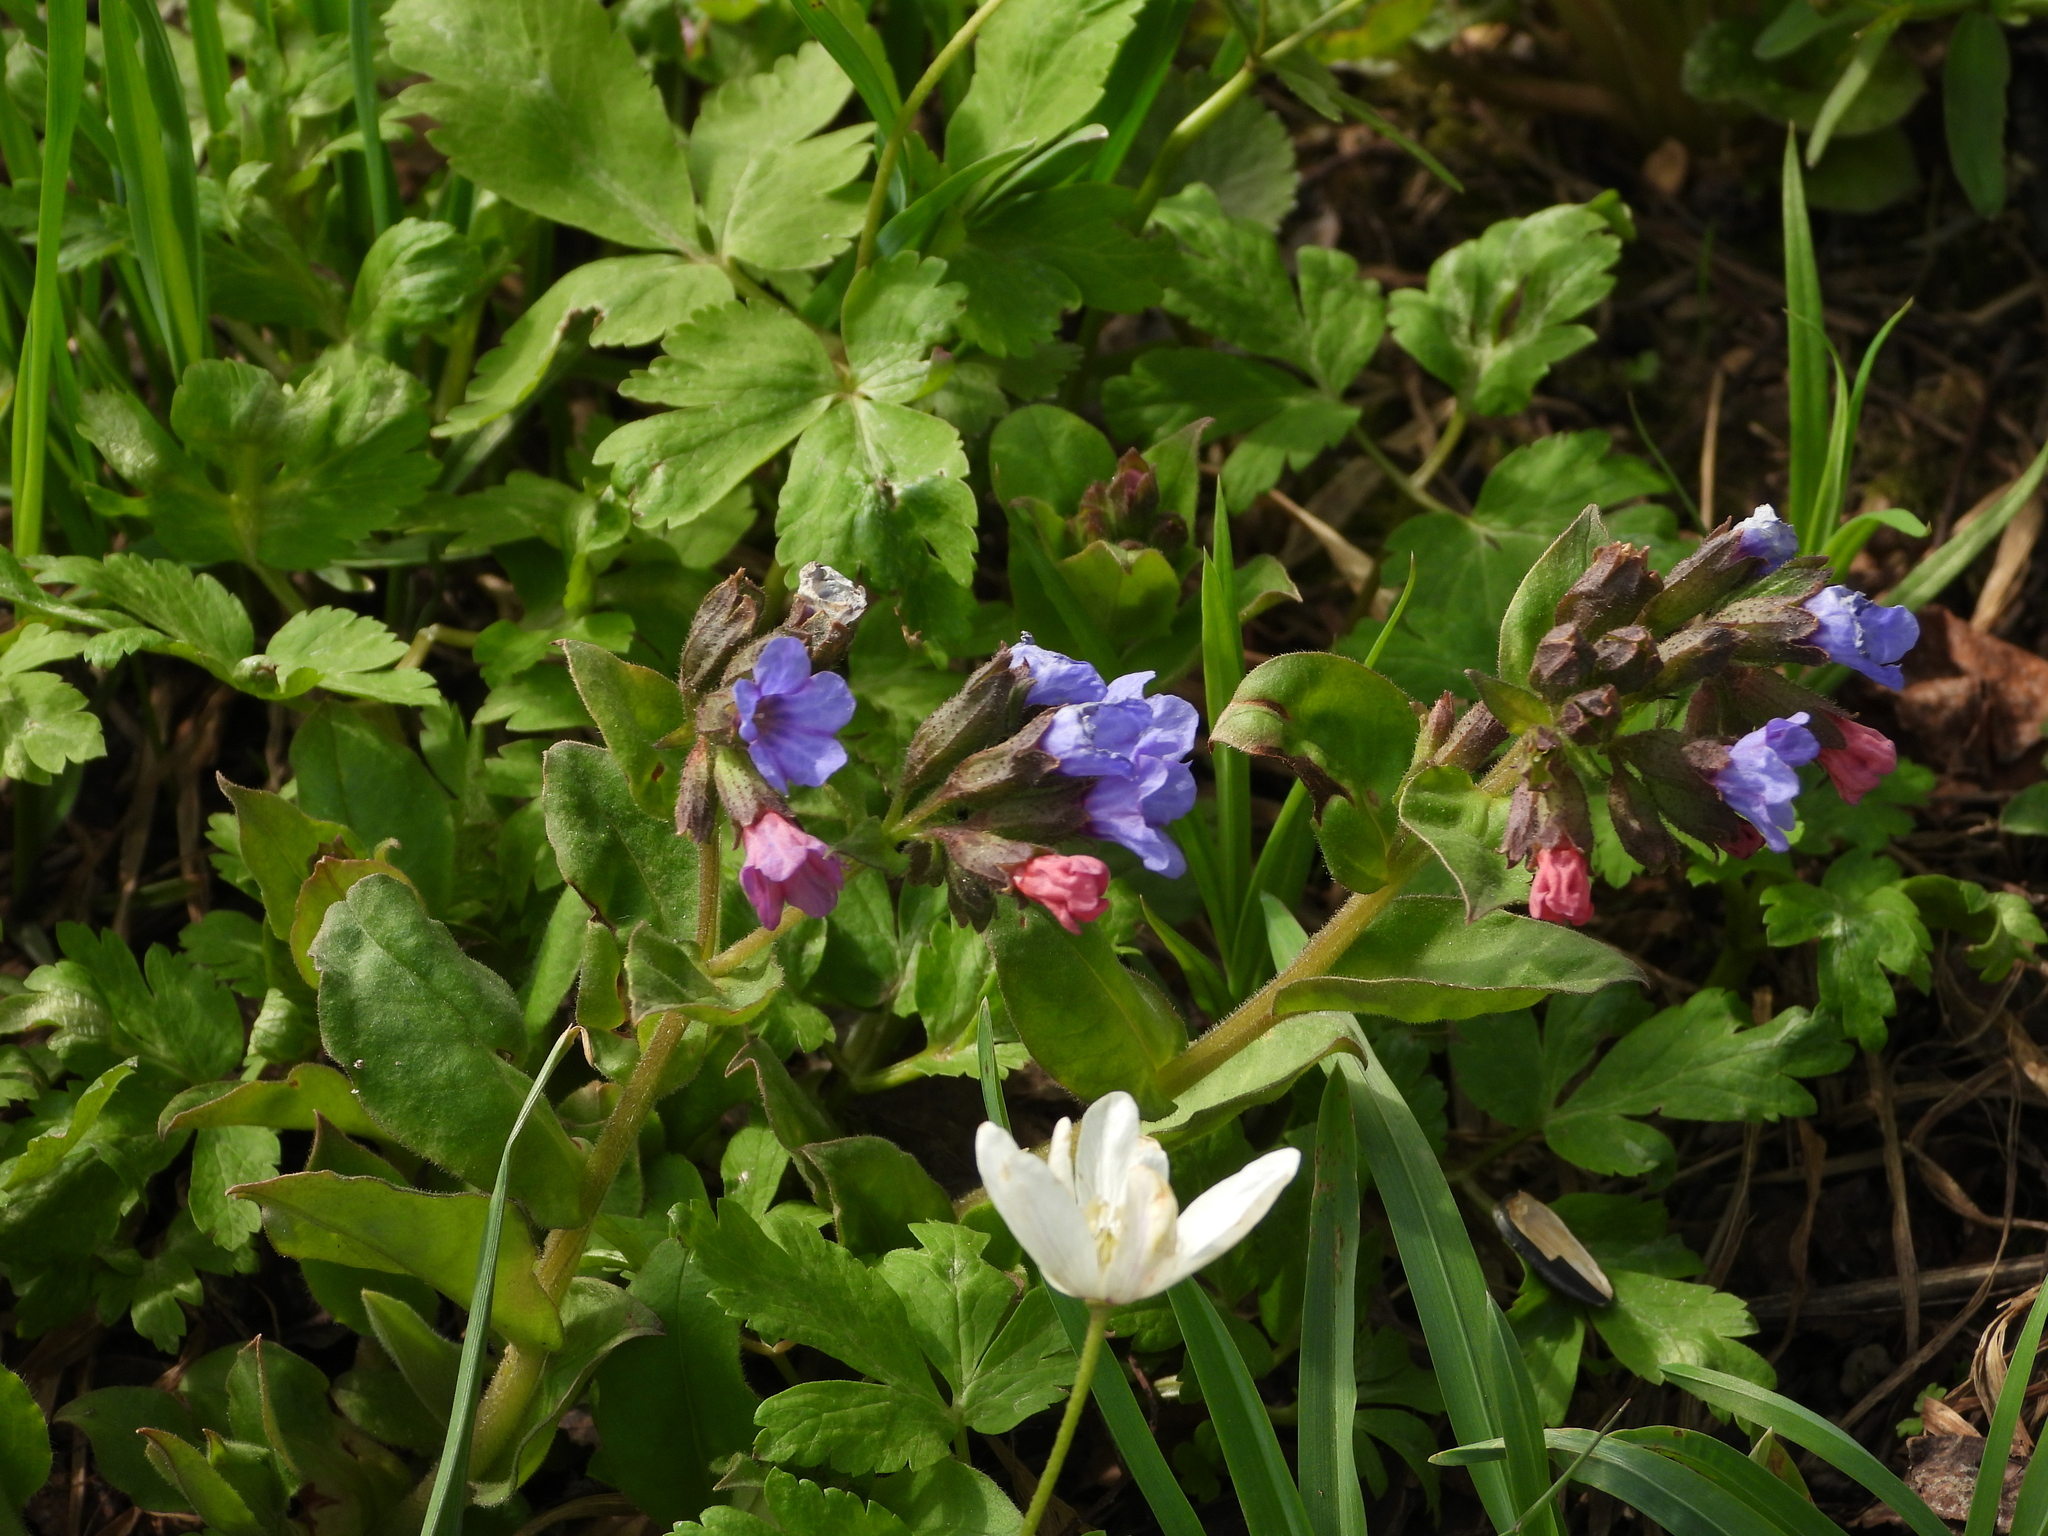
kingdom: Plantae
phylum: Tracheophyta
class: Magnoliopsida
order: Boraginales
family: Boraginaceae
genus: Pulmonaria
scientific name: Pulmonaria obscura
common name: Suffolk lungwort
